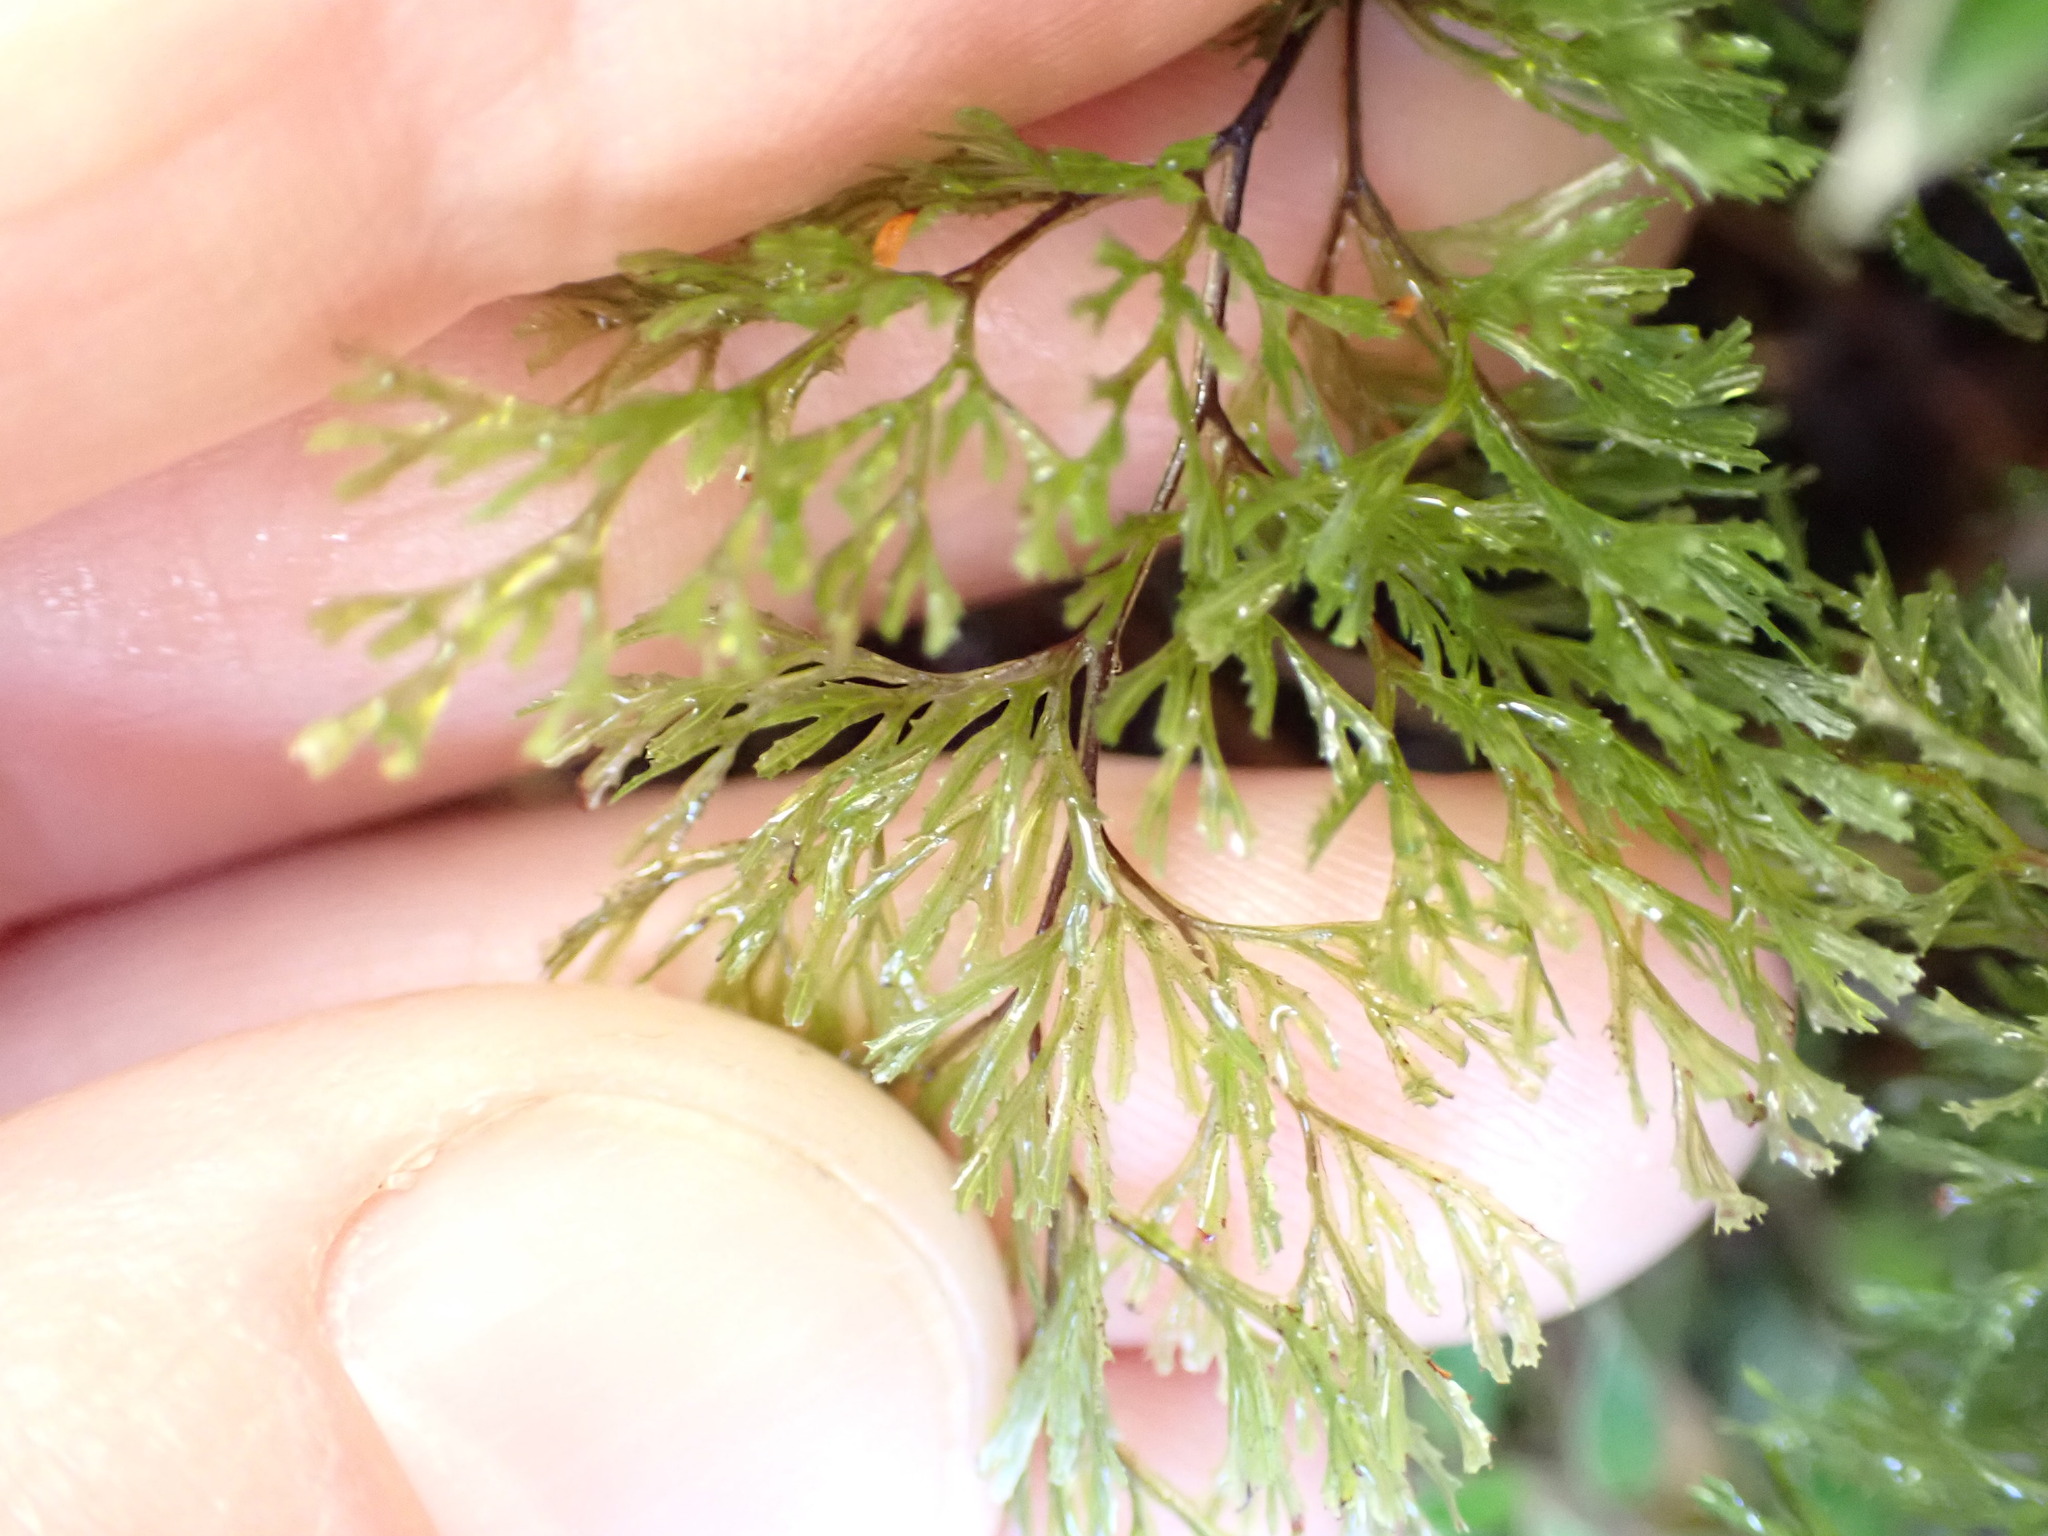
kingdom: Plantae
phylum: Tracheophyta
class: Polypodiopsida
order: Hymenophyllales
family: Hymenophyllaceae
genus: Hymenophyllum
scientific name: Hymenophyllum multifidum
